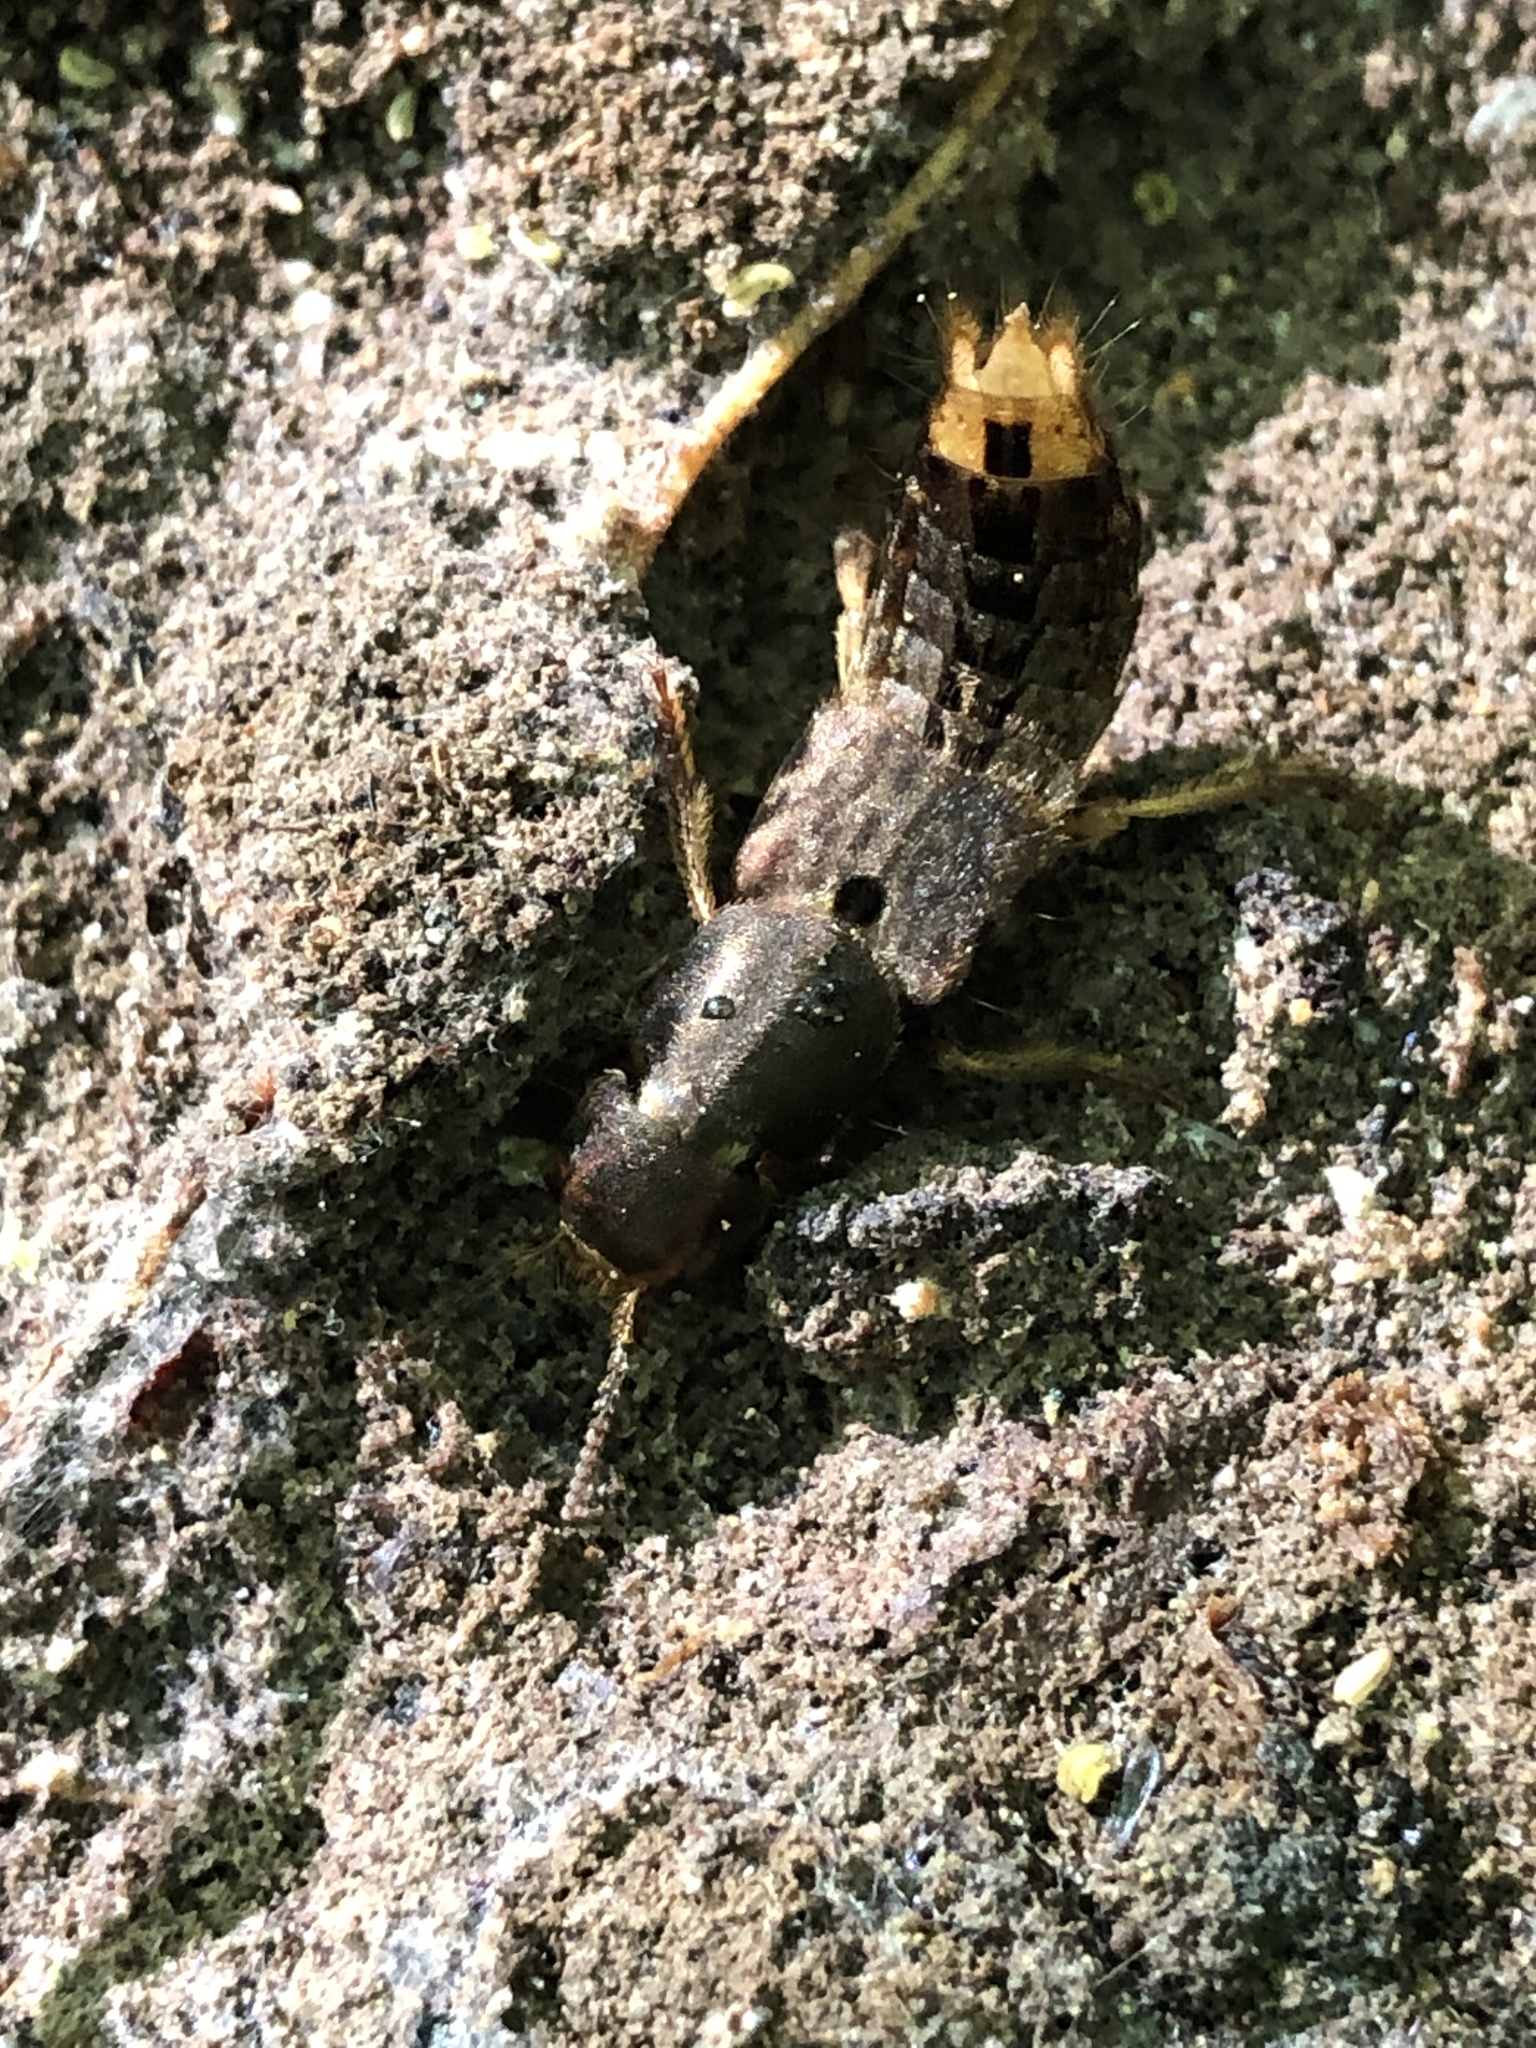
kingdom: Animalia
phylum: Arthropoda
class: Insecta
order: Coleoptera
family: Staphylinidae
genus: Platydracus
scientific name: Platydracus maculosus
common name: Brown rove beetle
